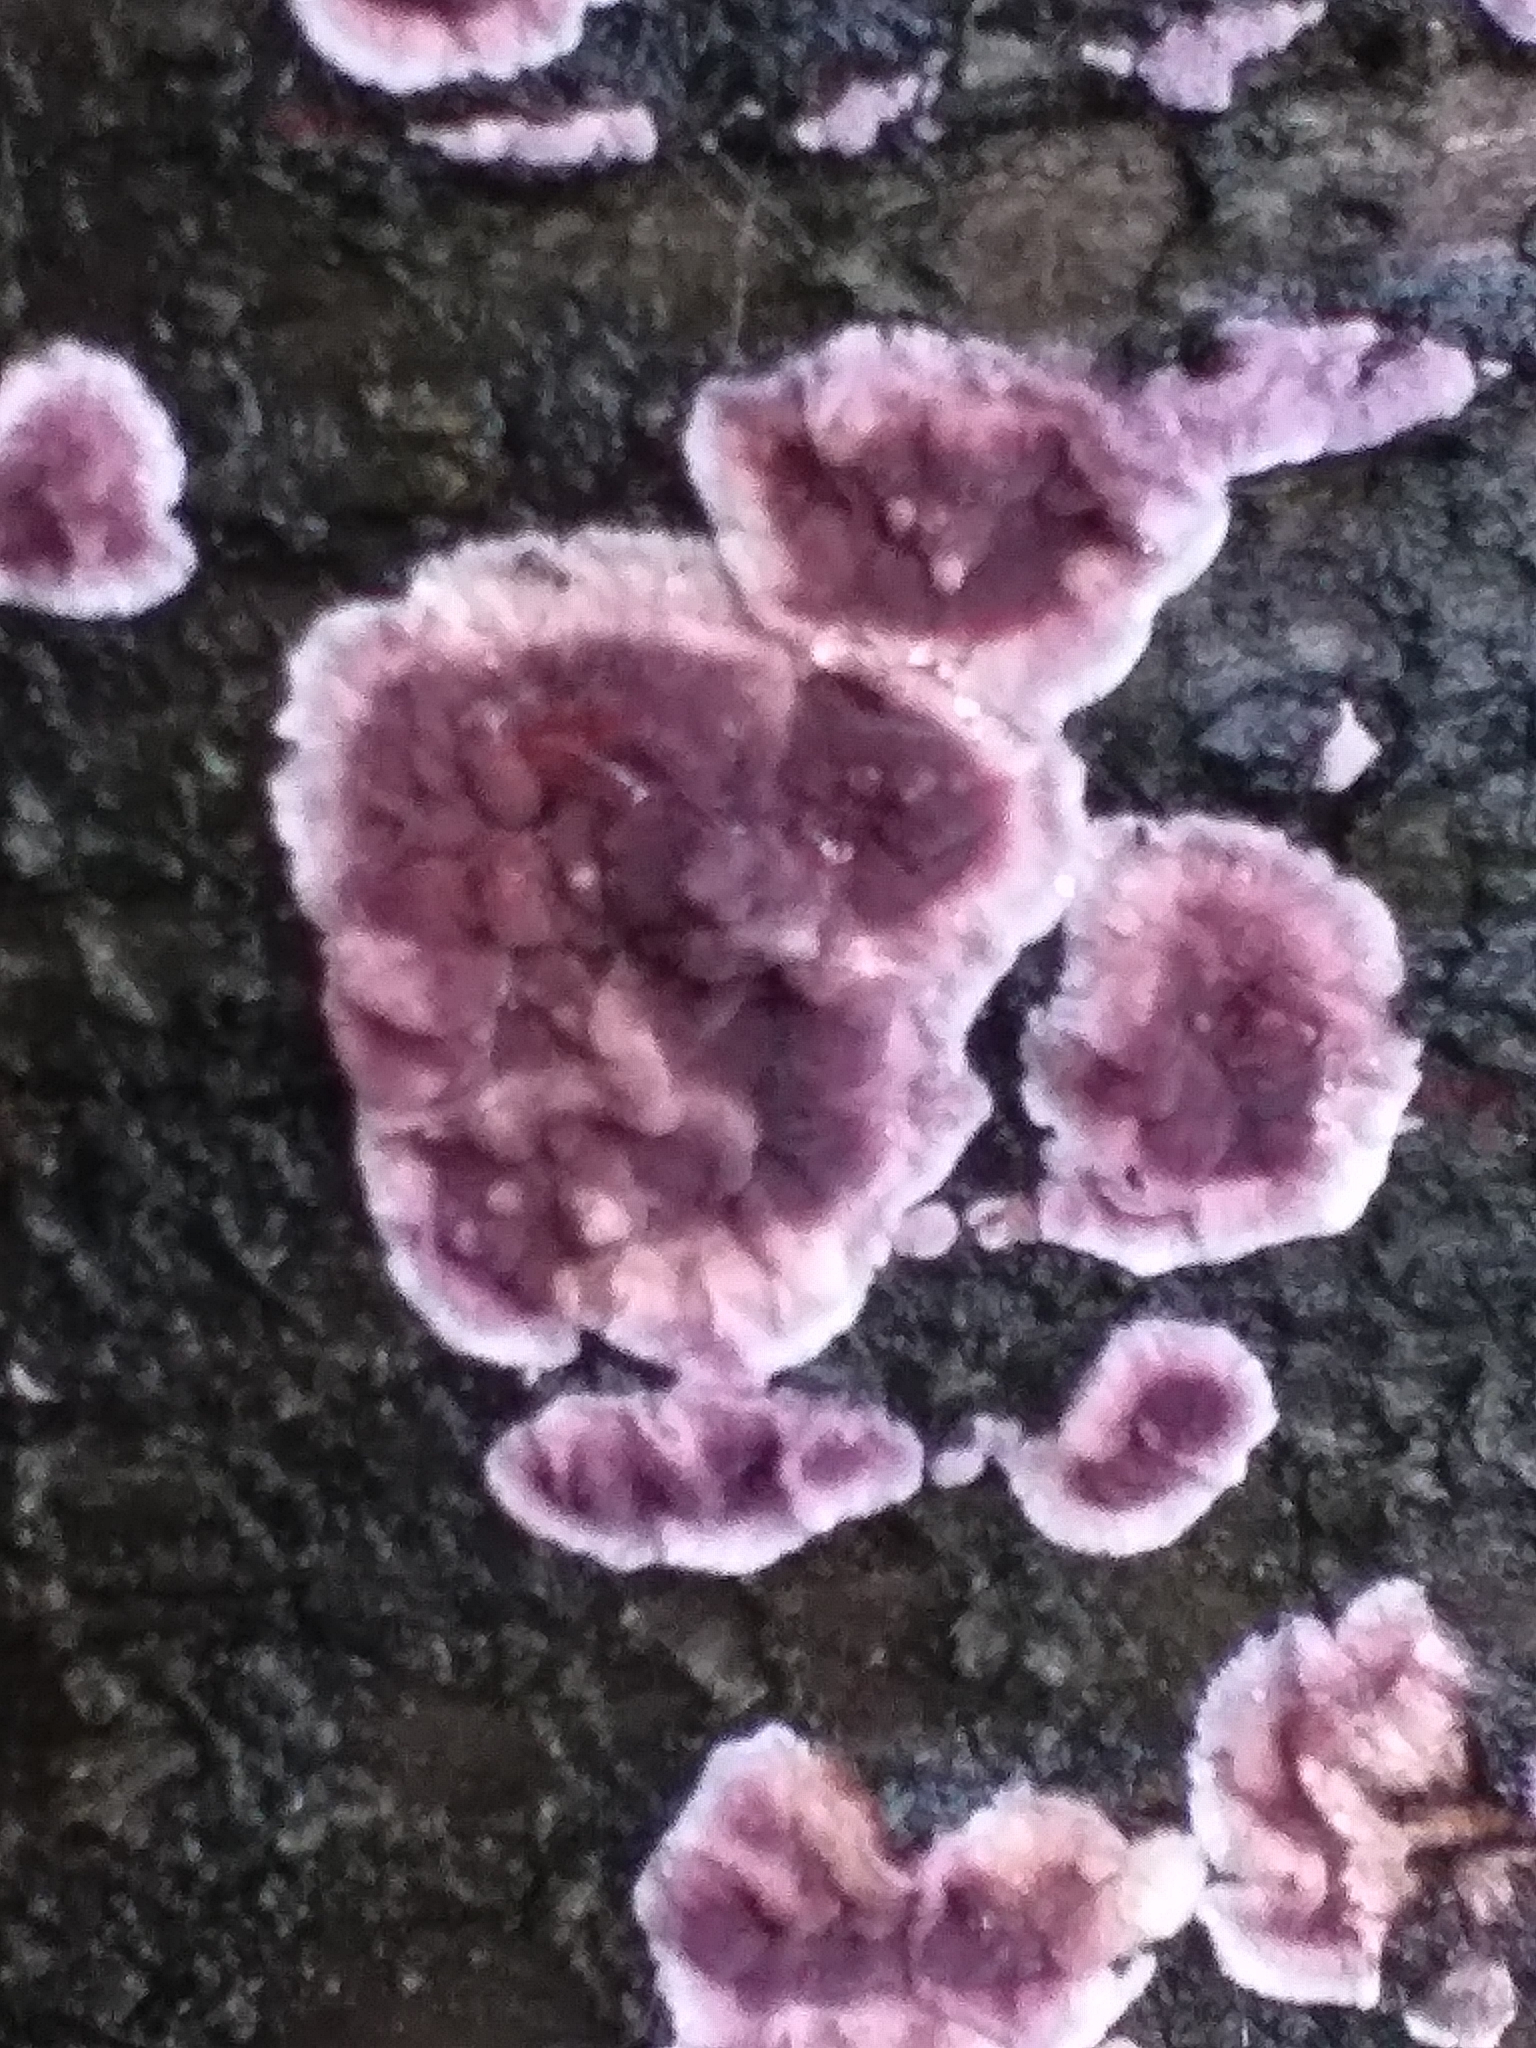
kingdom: Fungi
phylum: Basidiomycota
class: Agaricomycetes
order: Agaricales
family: Cyphellaceae
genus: Chondrostereum
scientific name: Chondrostereum purpureum
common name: Silver leaf disease
